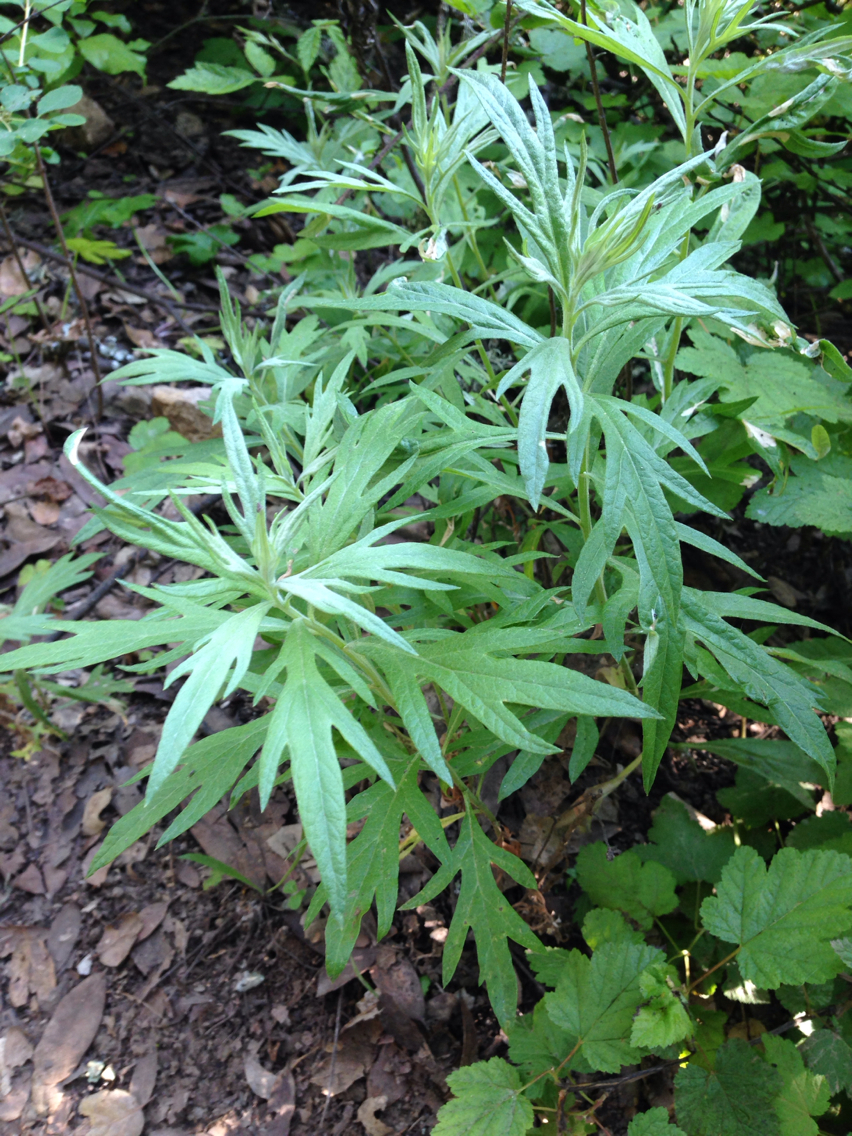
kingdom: Plantae
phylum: Tracheophyta
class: Magnoliopsida
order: Asterales
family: Asteraceae
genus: Artemisia
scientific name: Artemisia douglasiana
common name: Northwest mugwort
